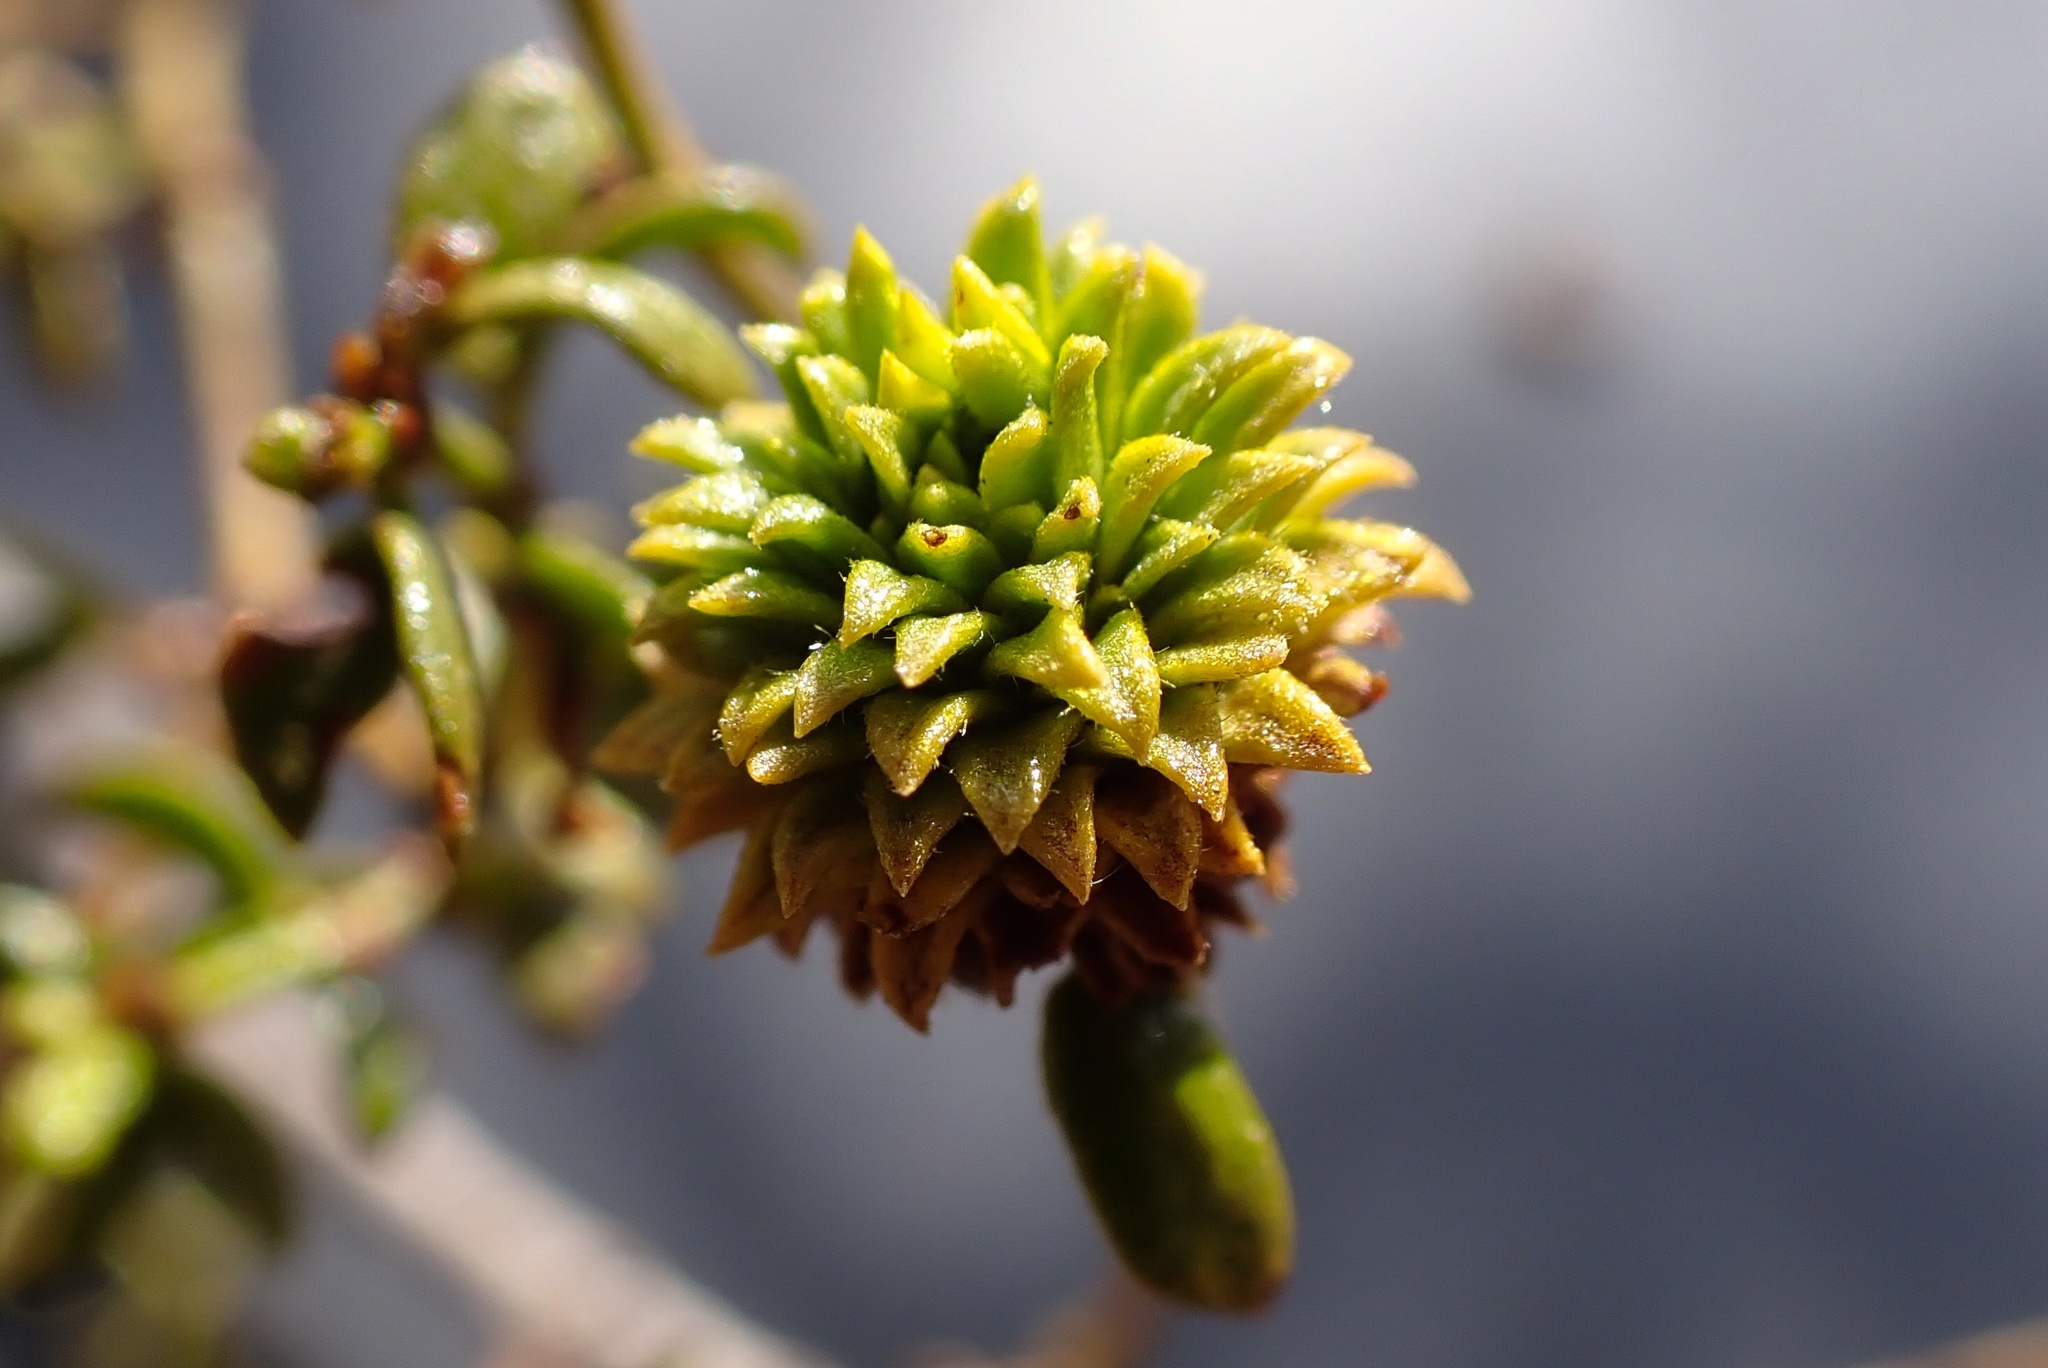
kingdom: Animalia
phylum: Arthropoda
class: Insecta
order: Diptera
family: Cecidomyiidae
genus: Asphondylia
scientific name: Asphondylia foliosa
